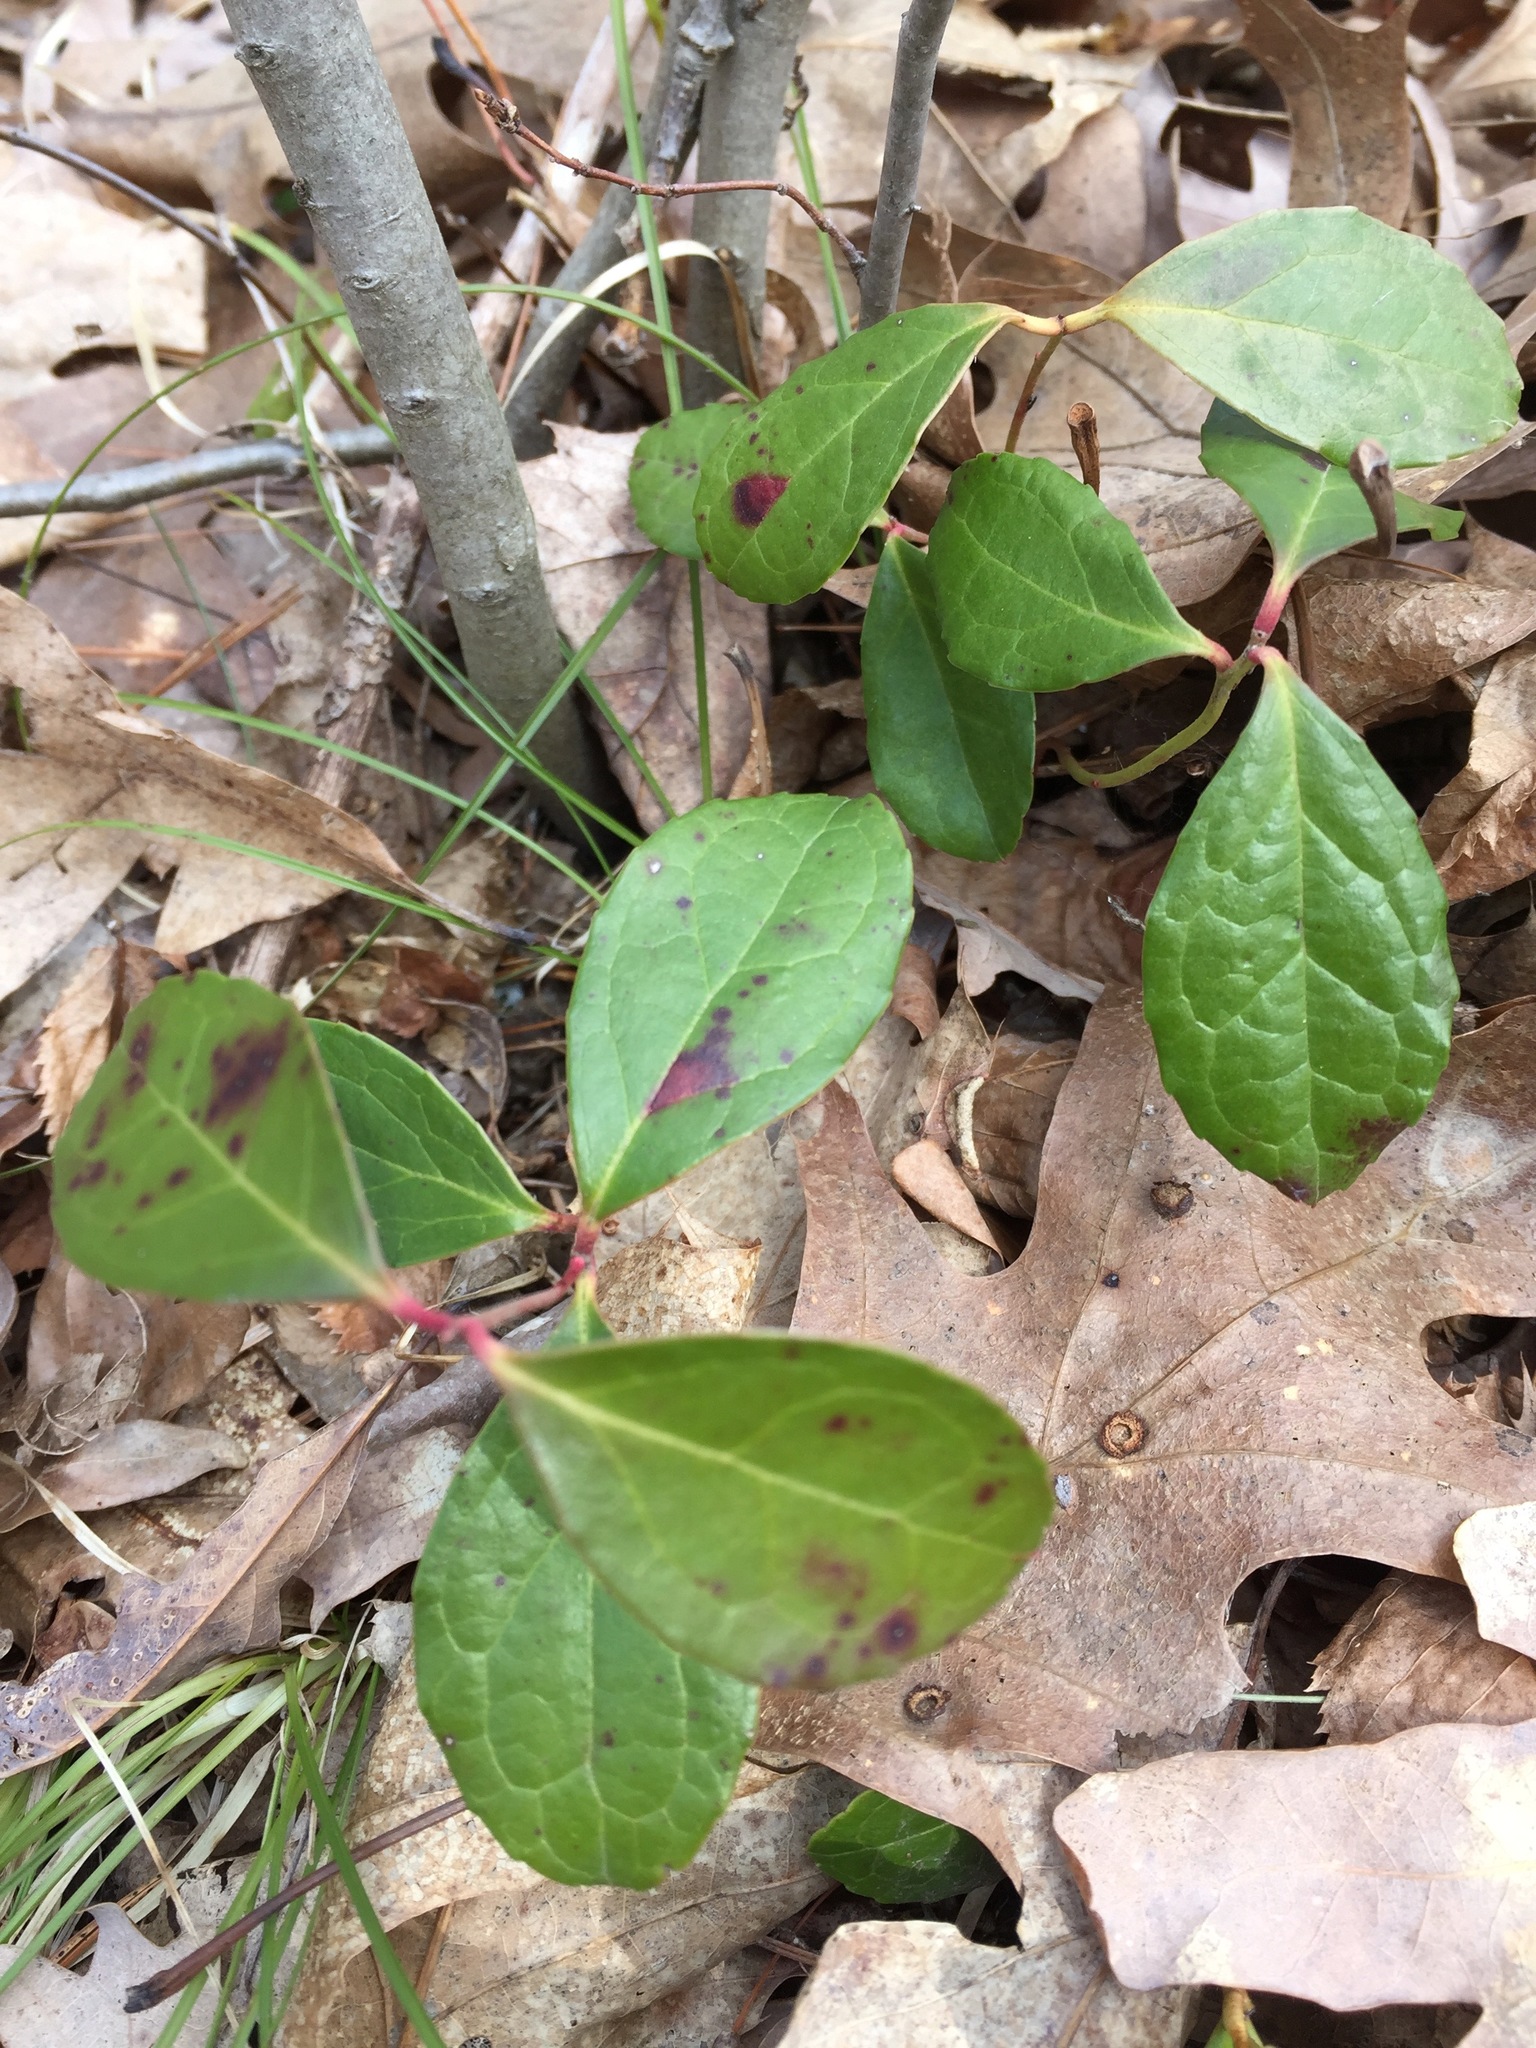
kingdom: Plantae
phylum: Tracheophyta
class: Magnoliopsida
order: Ericales
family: Ericaceae
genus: Gaultheria
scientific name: Gaultheria procumbens
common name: Checkerberry
